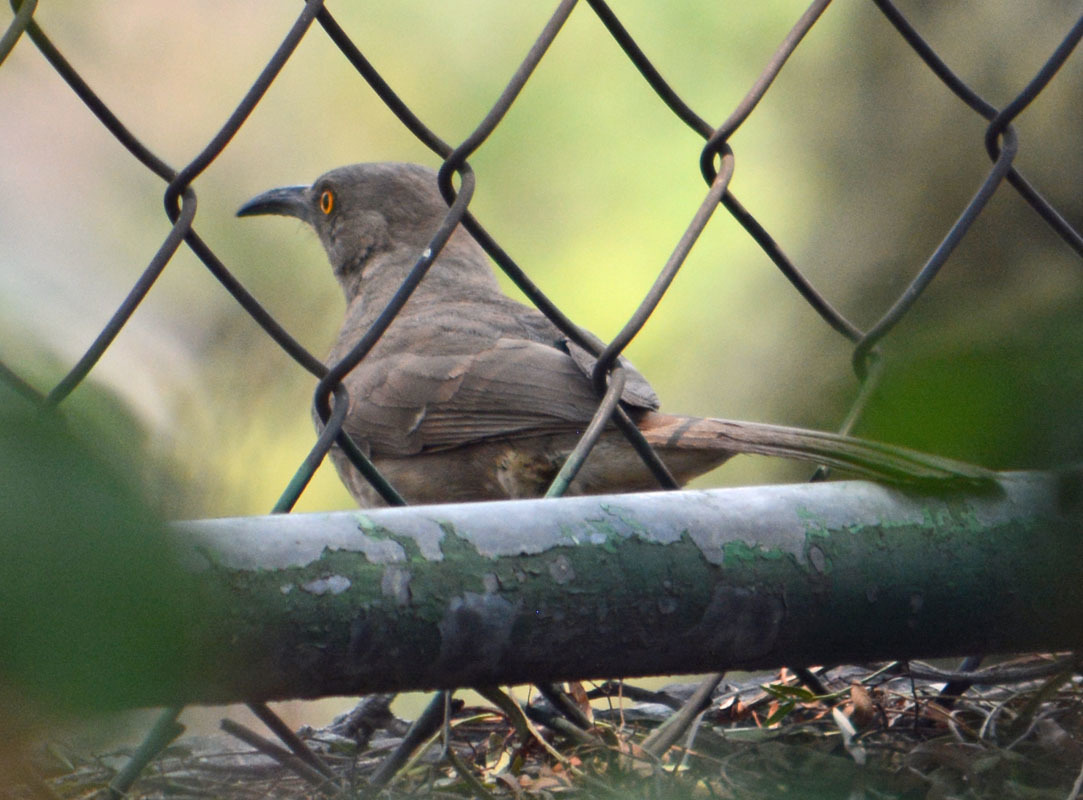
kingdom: Animalia
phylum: Chordata
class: Aves
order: Passeriformes
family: Mimidae
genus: Toxostoma
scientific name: Toxostoma curvirostre
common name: Curve-billed thrasher
